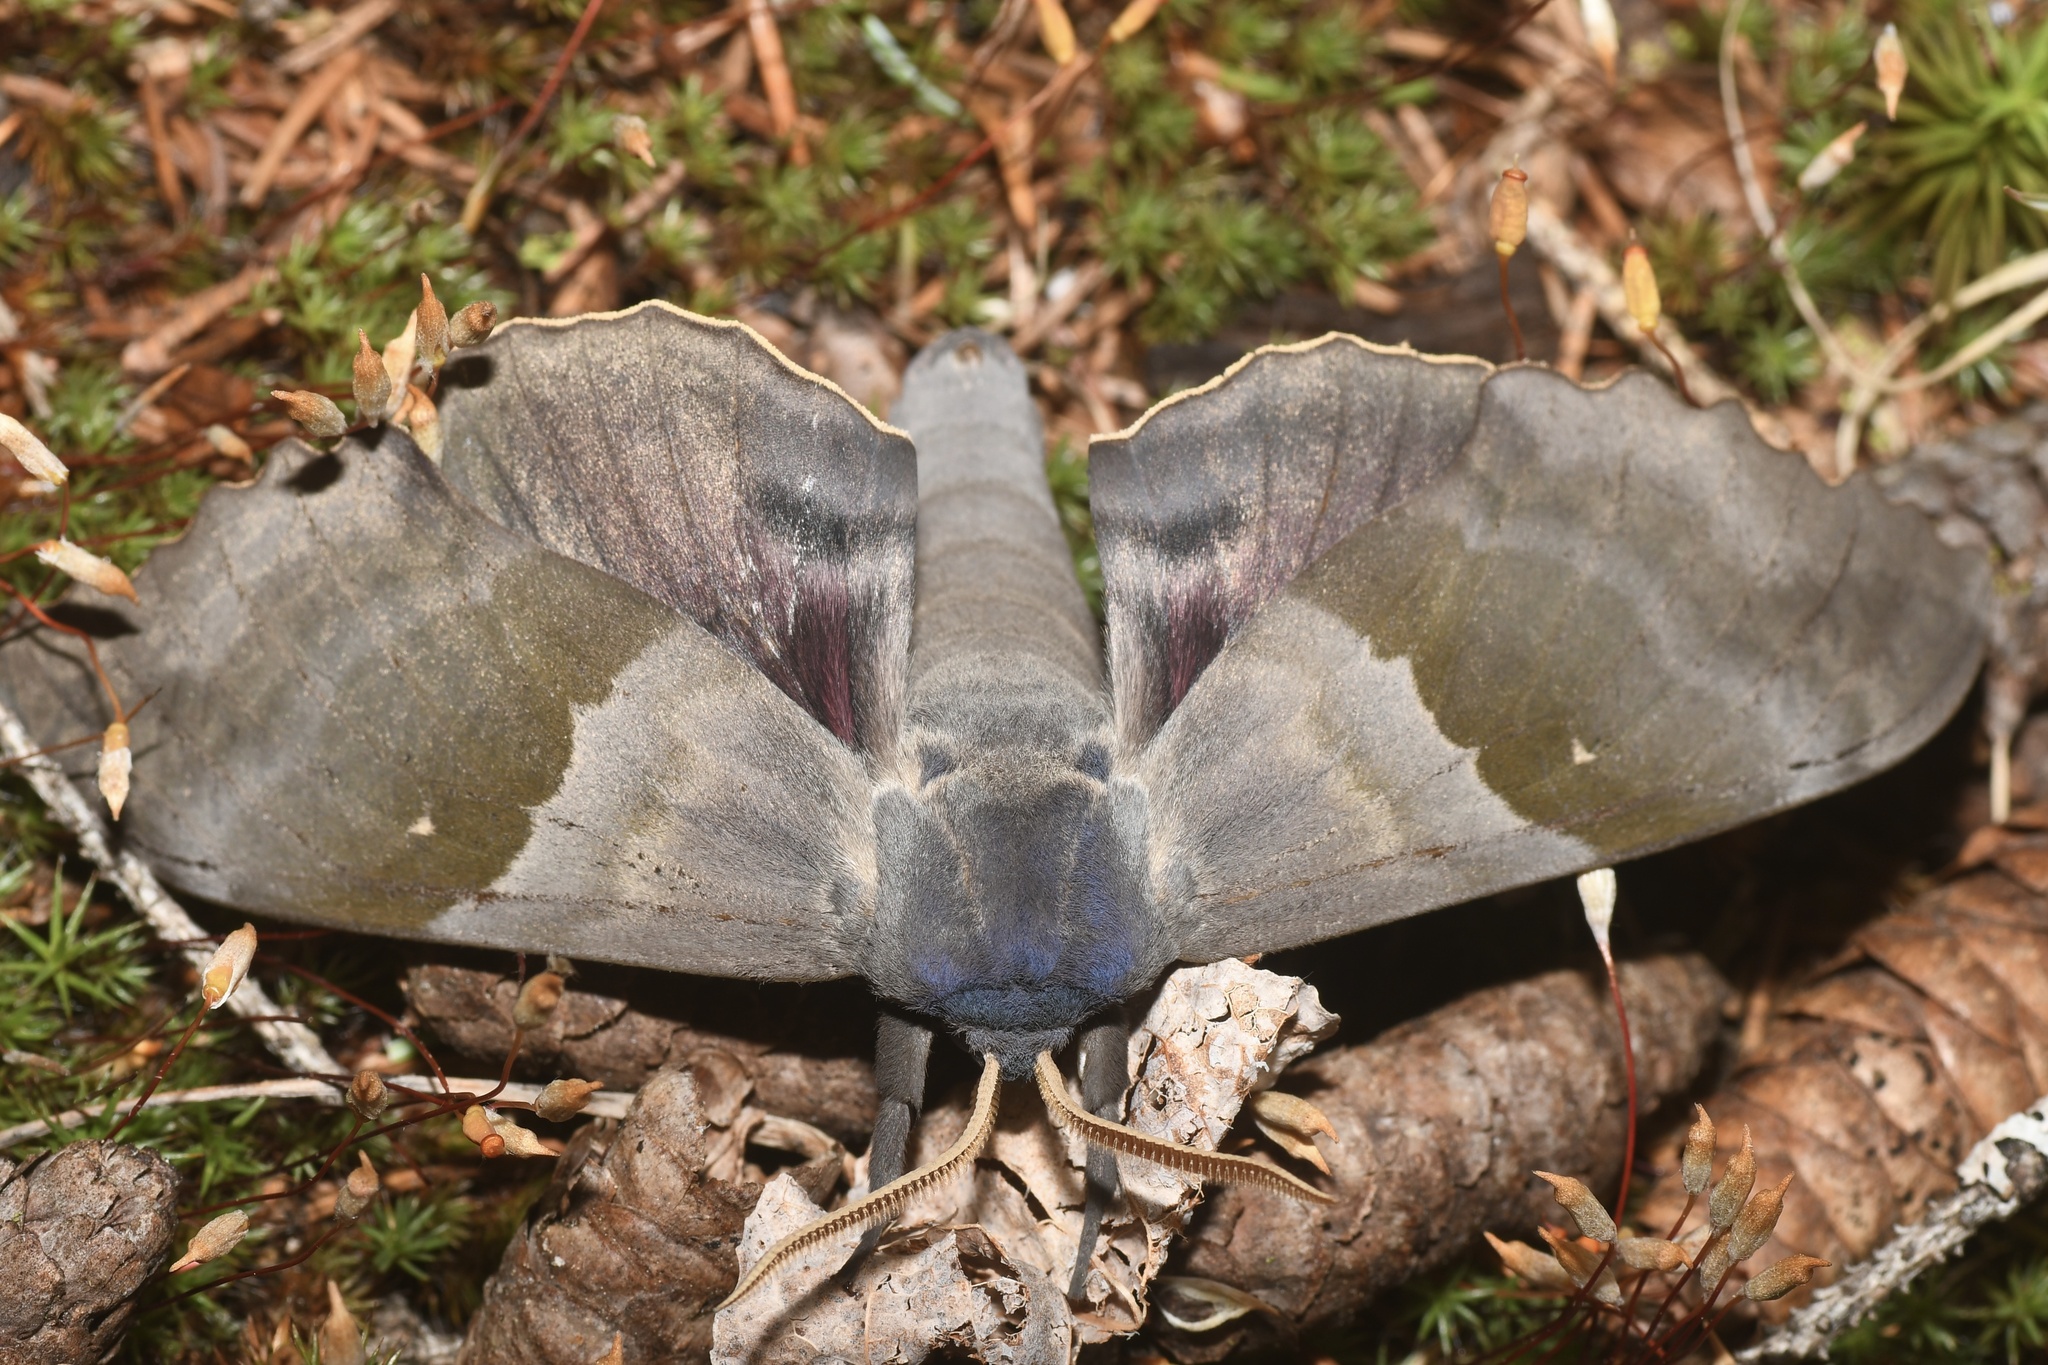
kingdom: Animalia
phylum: Arthropoda
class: Insecta
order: Lepidoptera
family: Sphingidae
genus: Pachysphinx
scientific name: Pachysphinx modesta
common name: Big poplar sphinx
